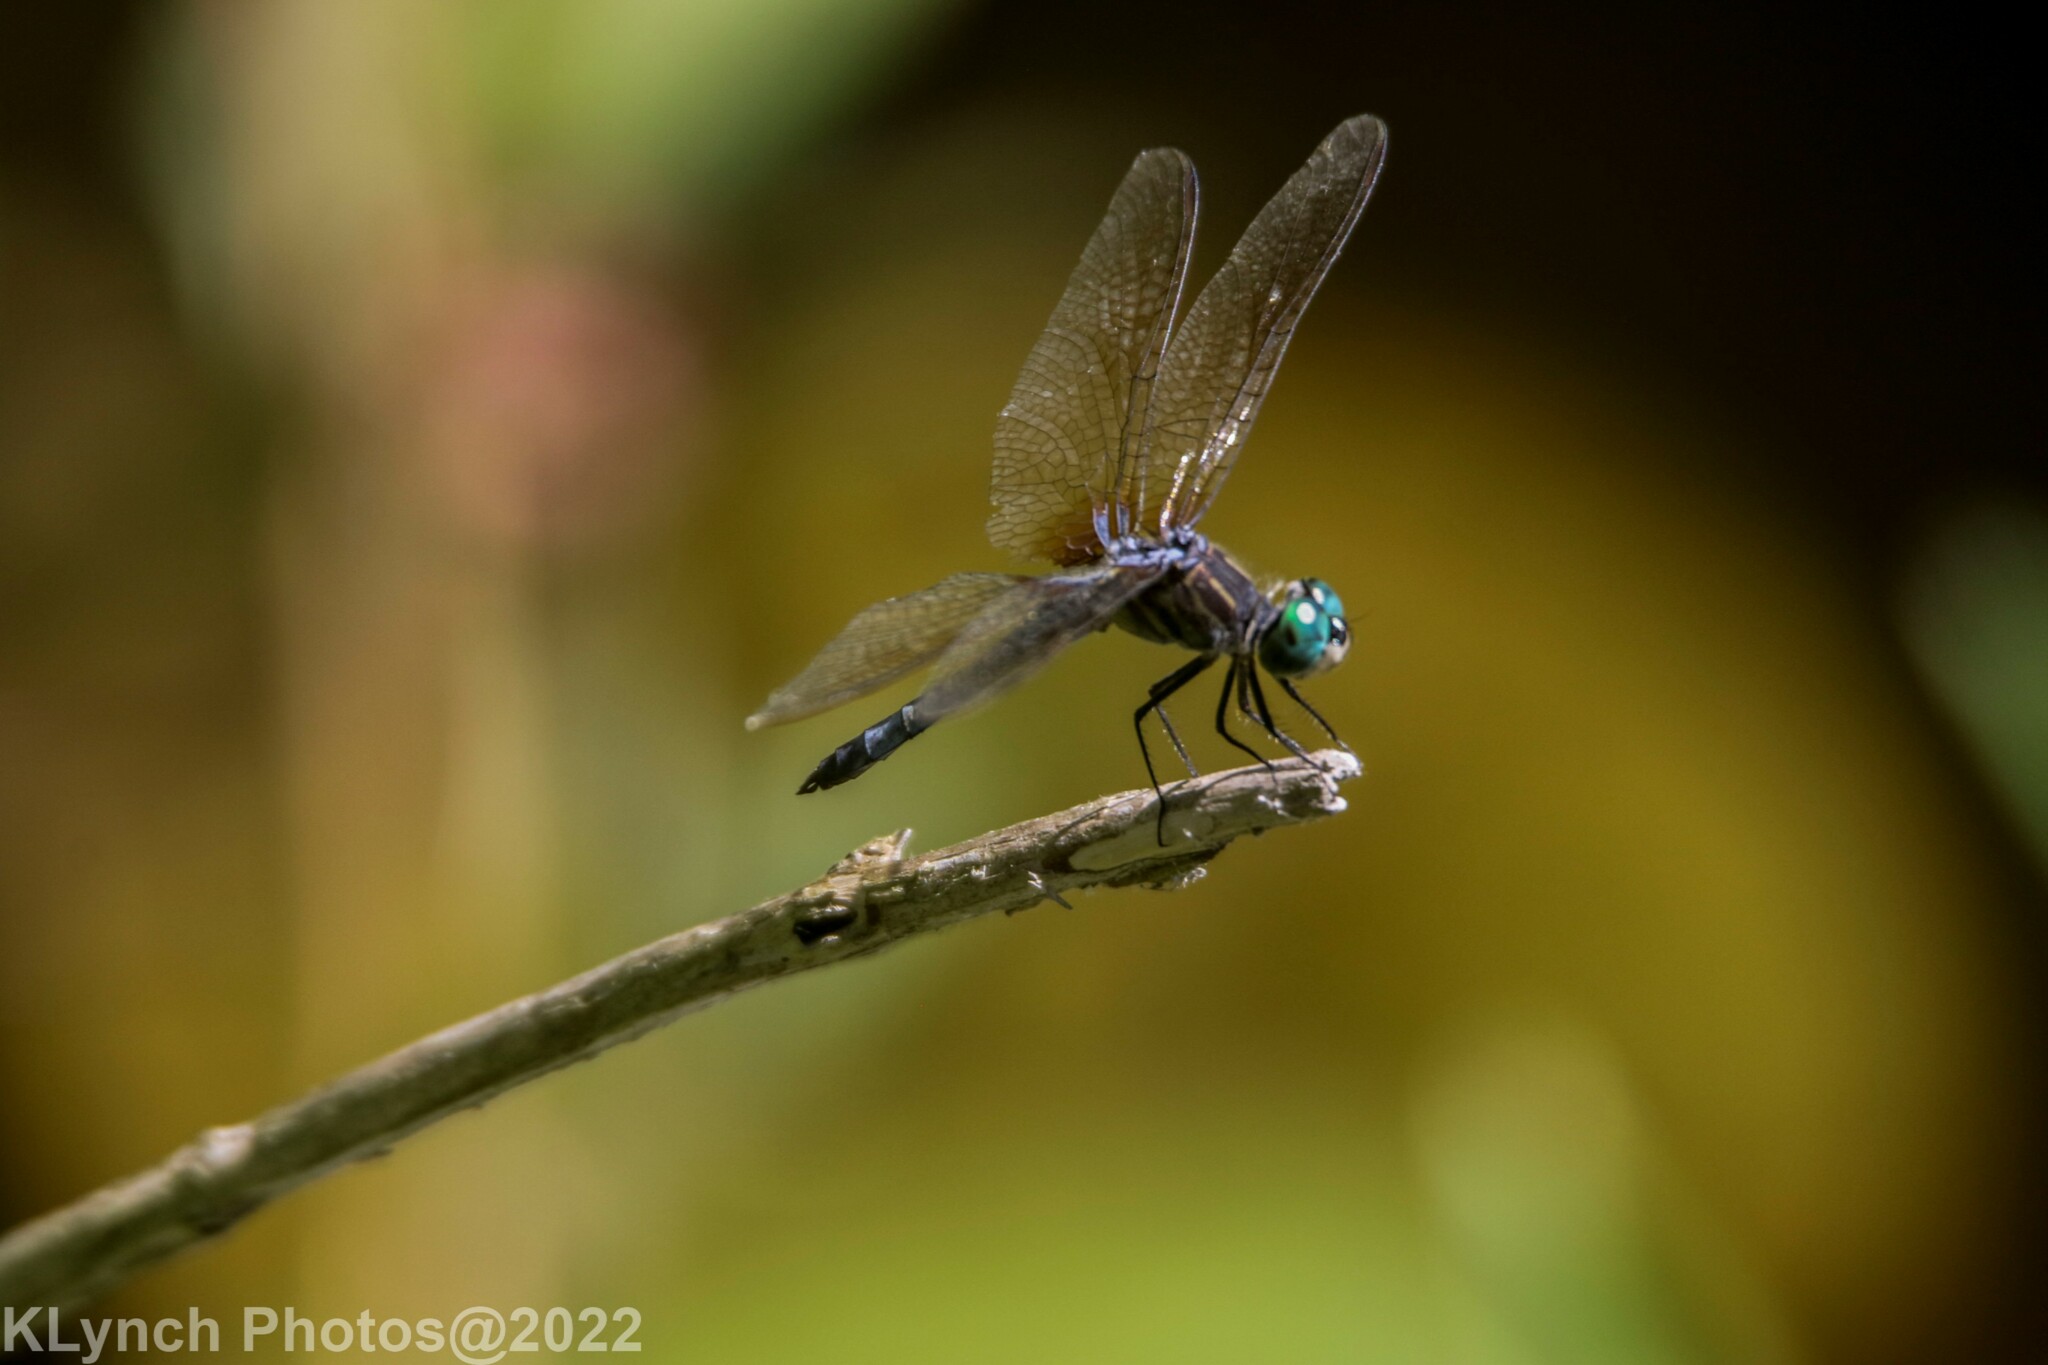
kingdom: Animalia
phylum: Arthropoda
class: Insecta
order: Odonata
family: Libellulidae
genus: Pachydiplax
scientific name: Pachydiplax longipennis
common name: Blue dasher
